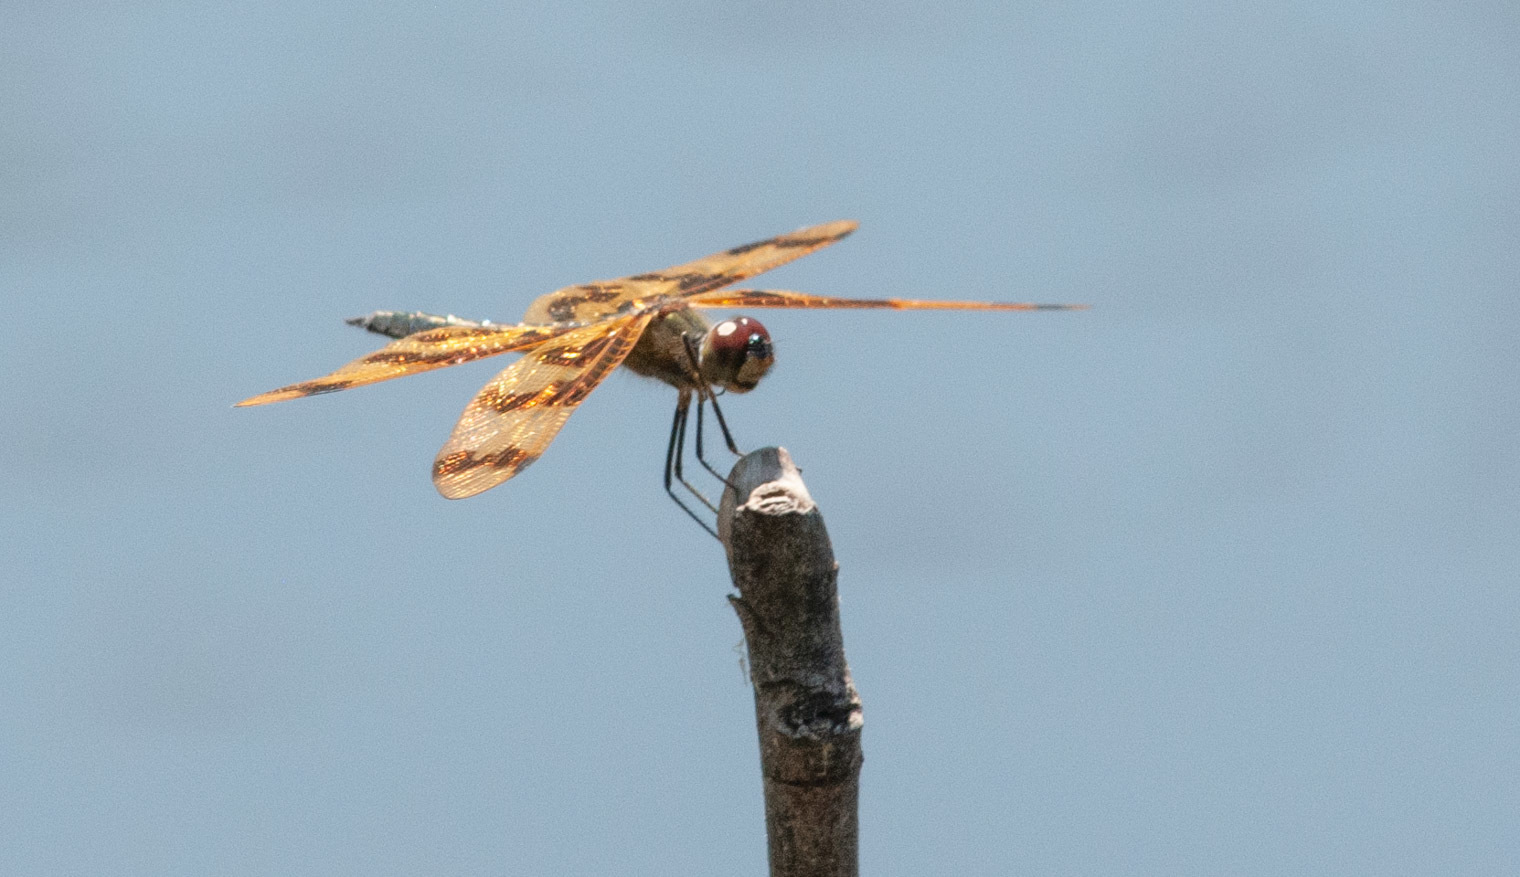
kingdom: Animalia
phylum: Arthropoda
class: Insecta
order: Odonata
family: Libellulidae
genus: Rhyothemis
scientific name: Rhyothemis graphiptera
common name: Graphic flutterer
